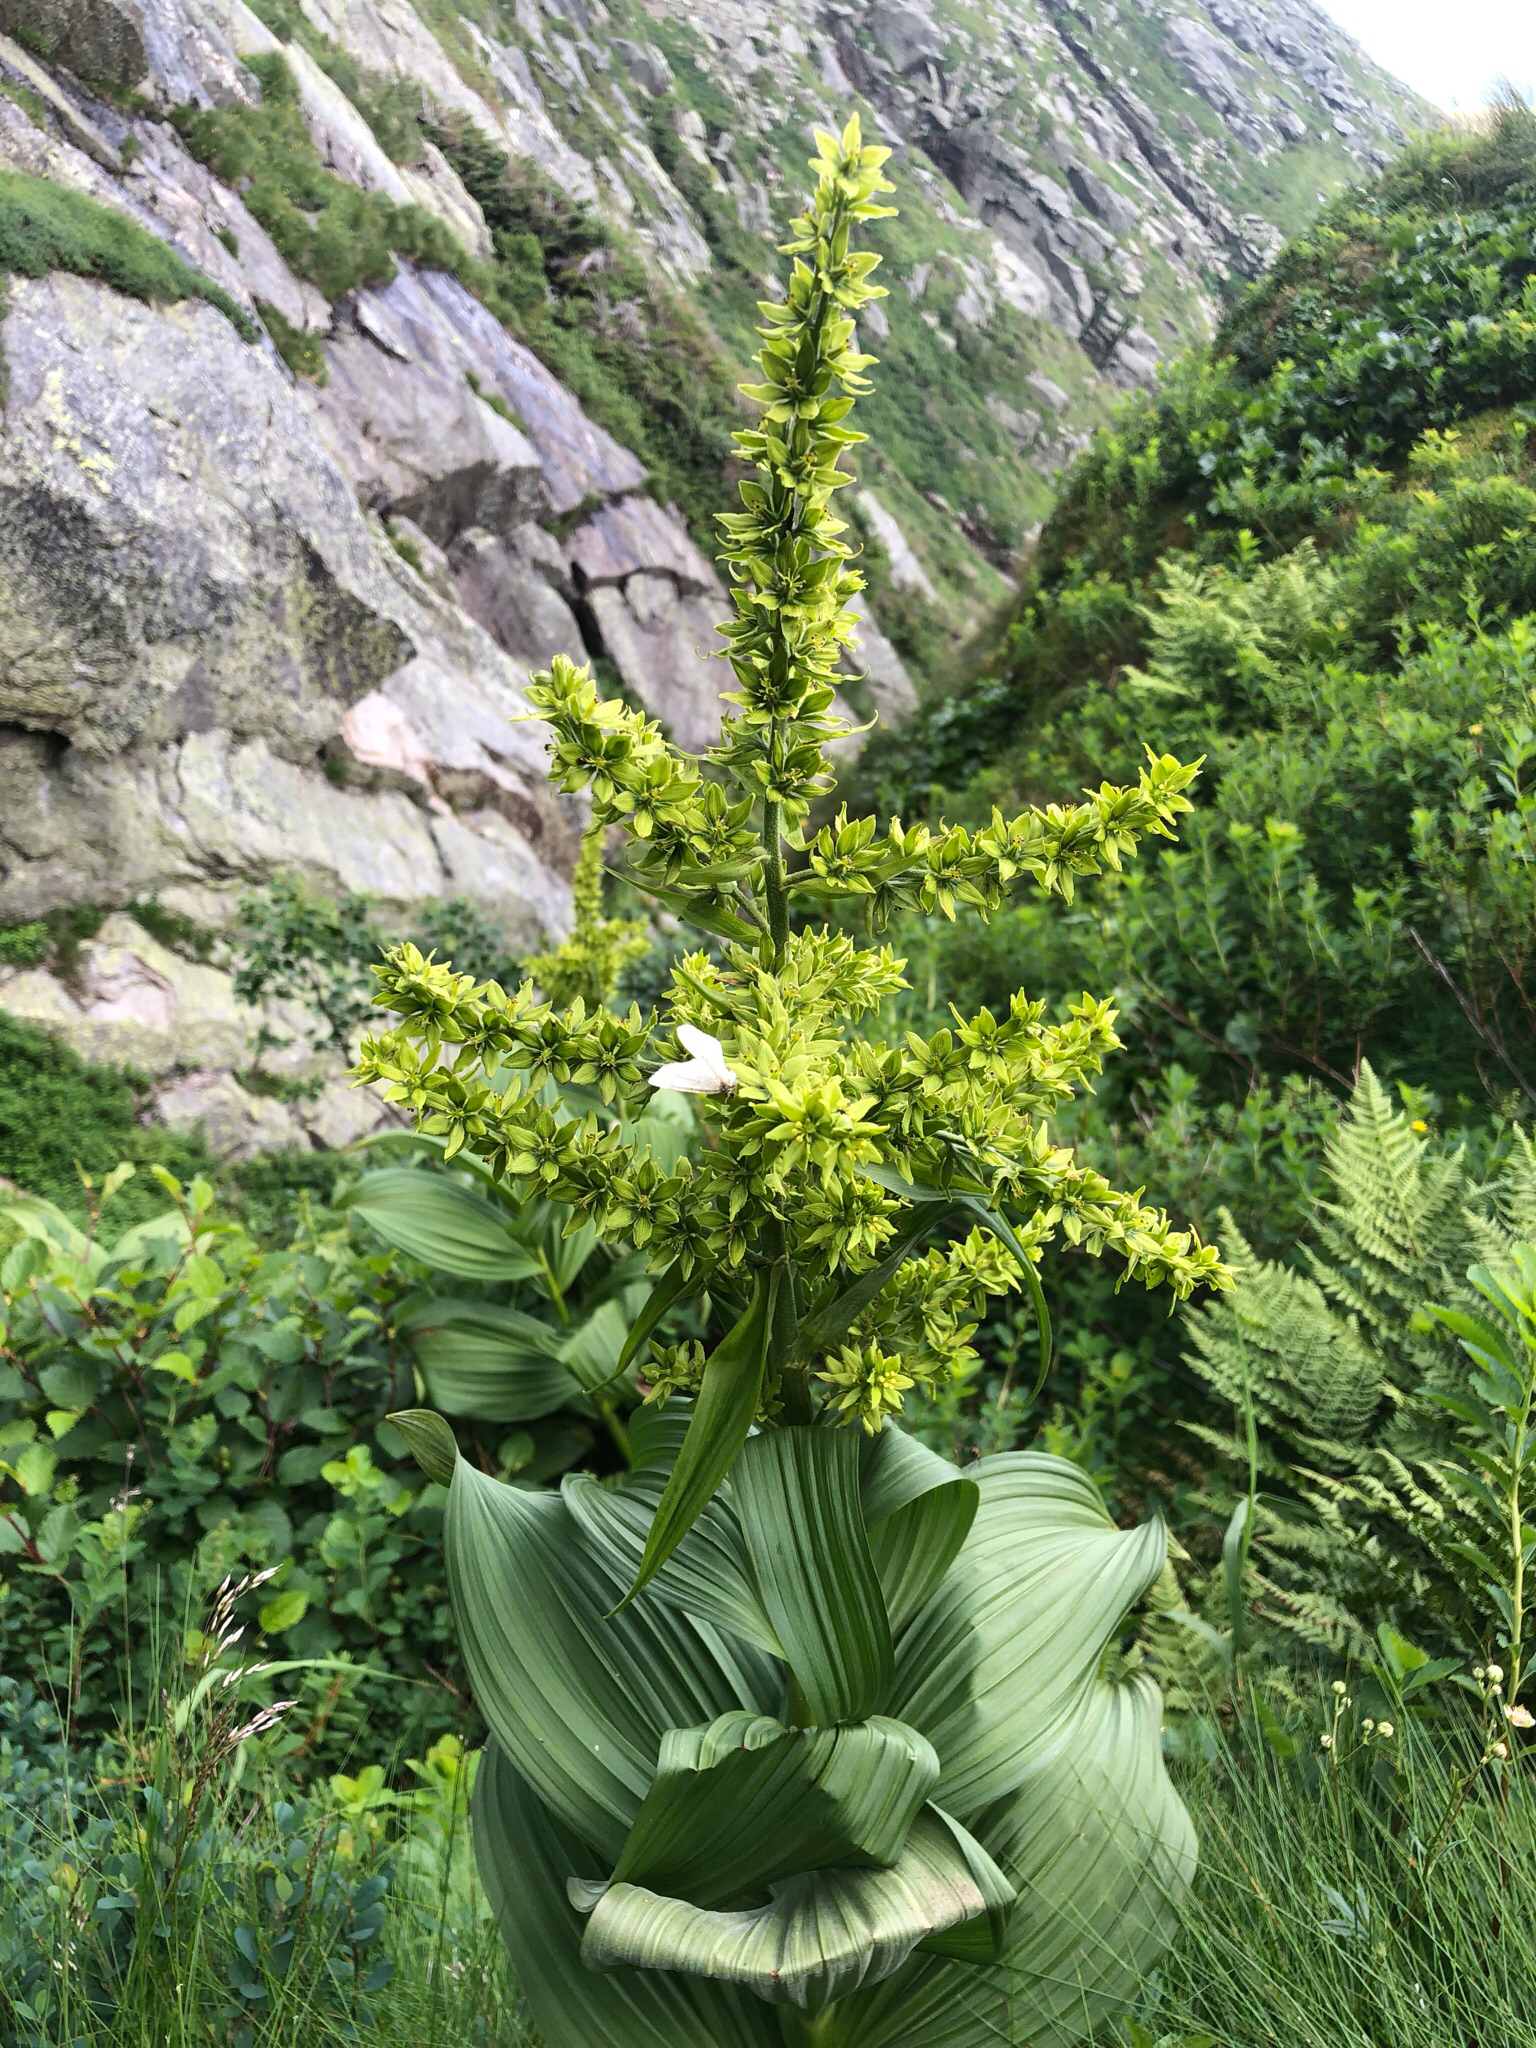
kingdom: Plantae
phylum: Tracheophyta
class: Liliopsida
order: Liliales
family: Melanthiaceae
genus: Veratrum
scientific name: Veratrum viride
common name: American false hellebore
